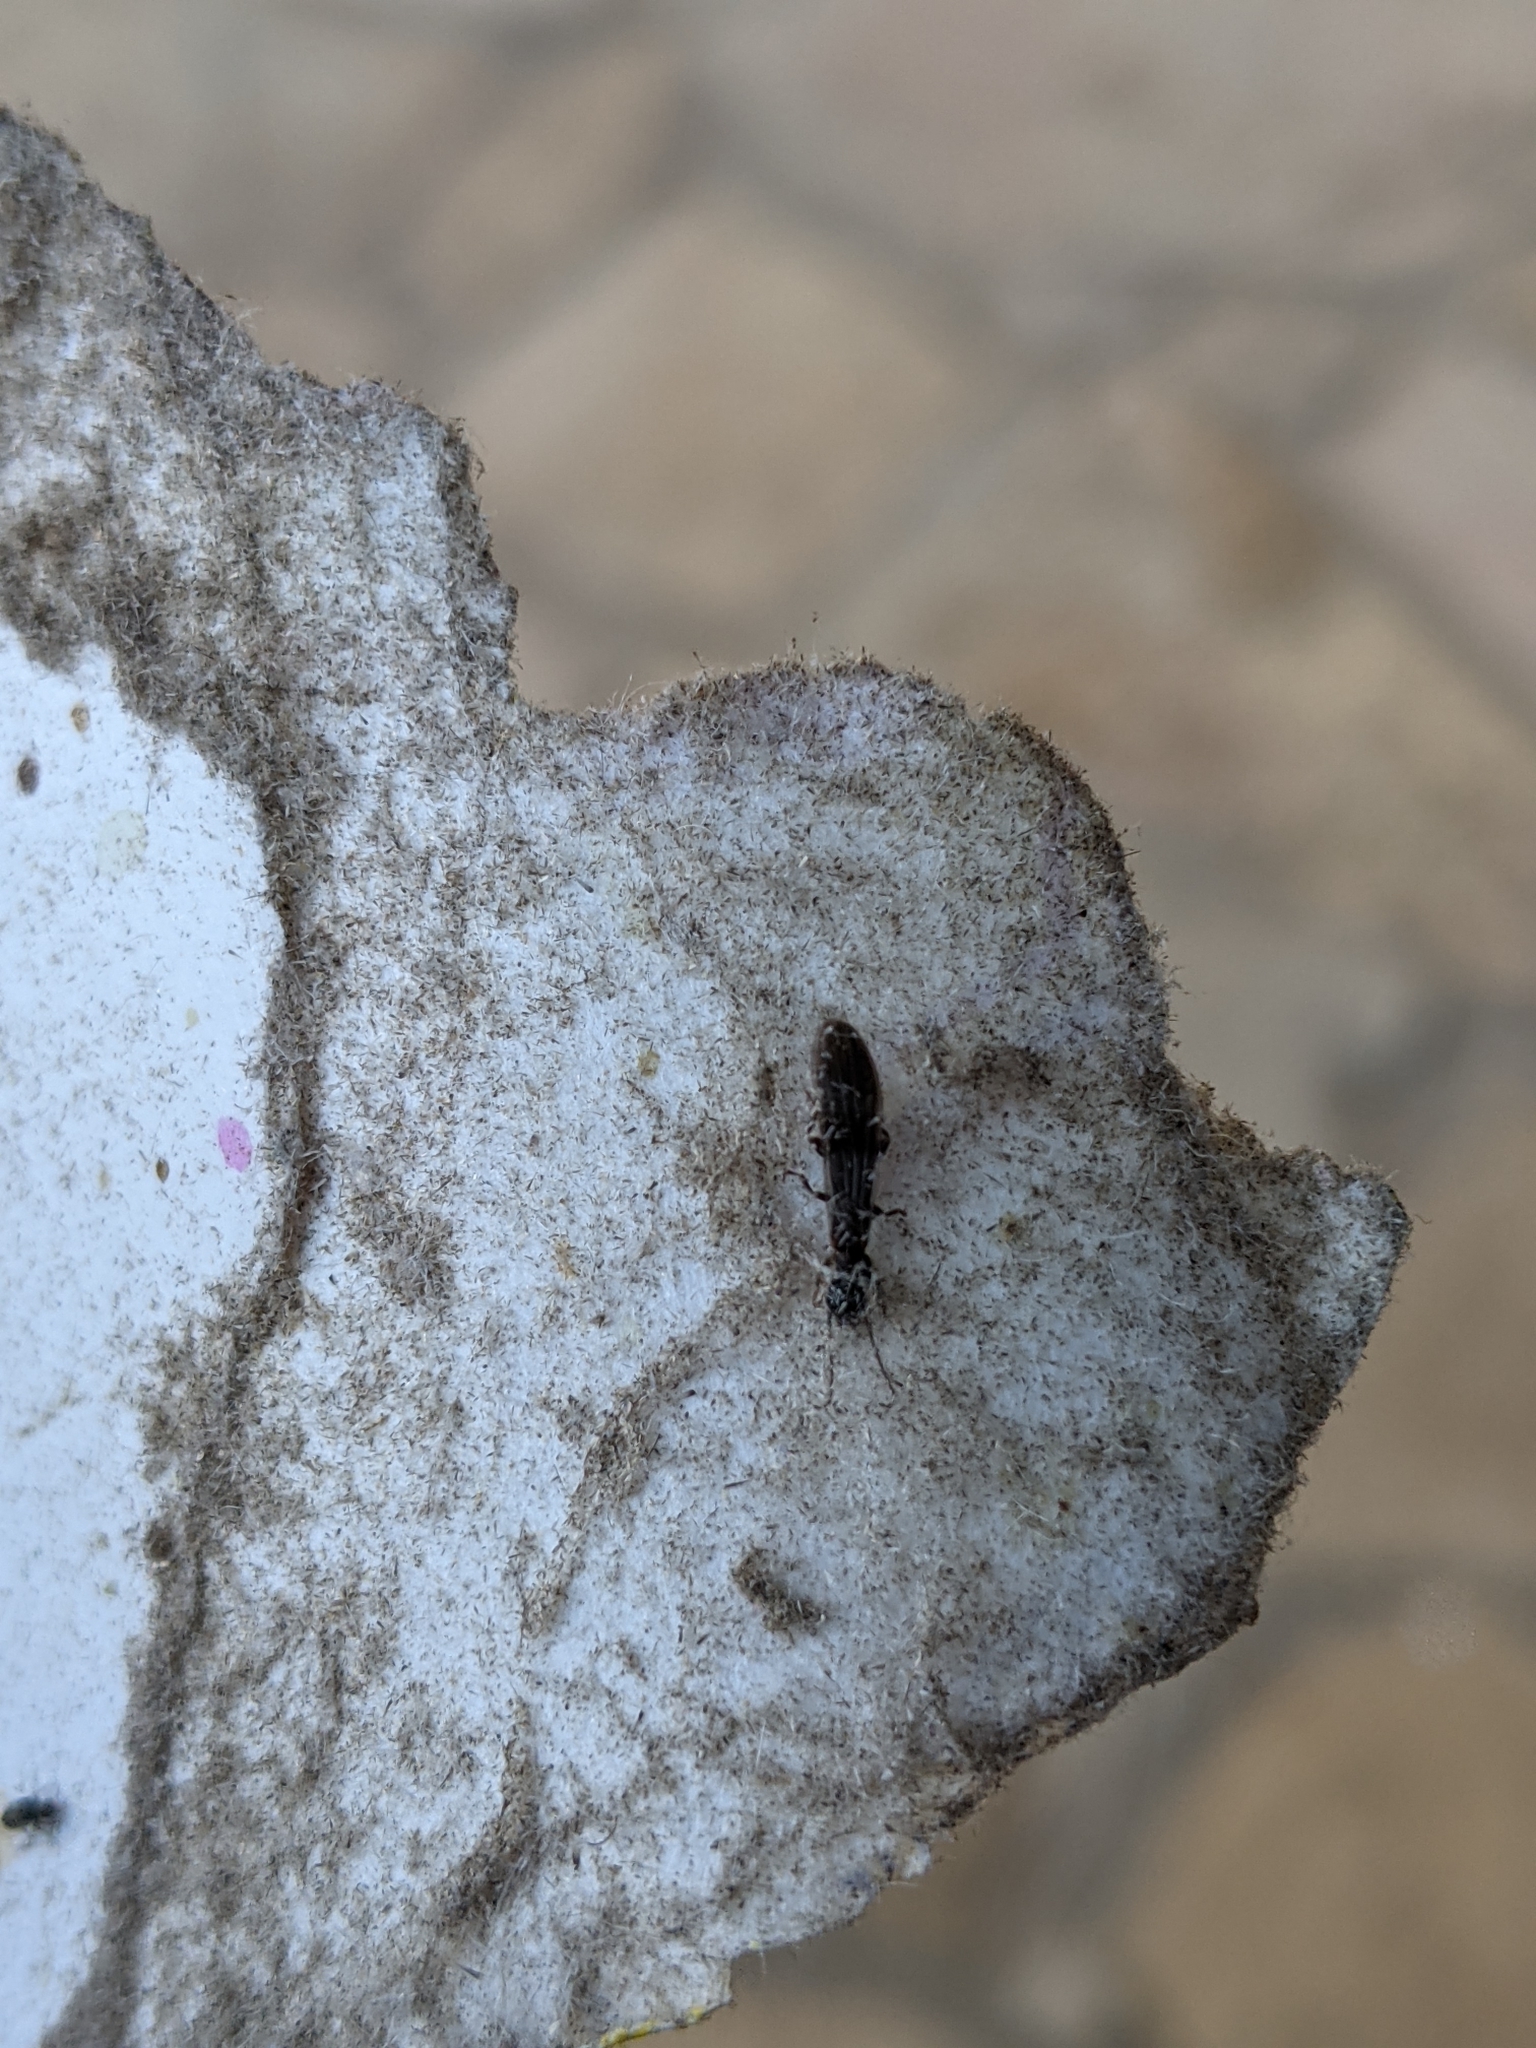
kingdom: Animalia
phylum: Arthropoda
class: Insecta
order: Embioptera
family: Oligotomidae
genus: Oligotoma
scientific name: Oligotoma nigra
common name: Black webspinner
